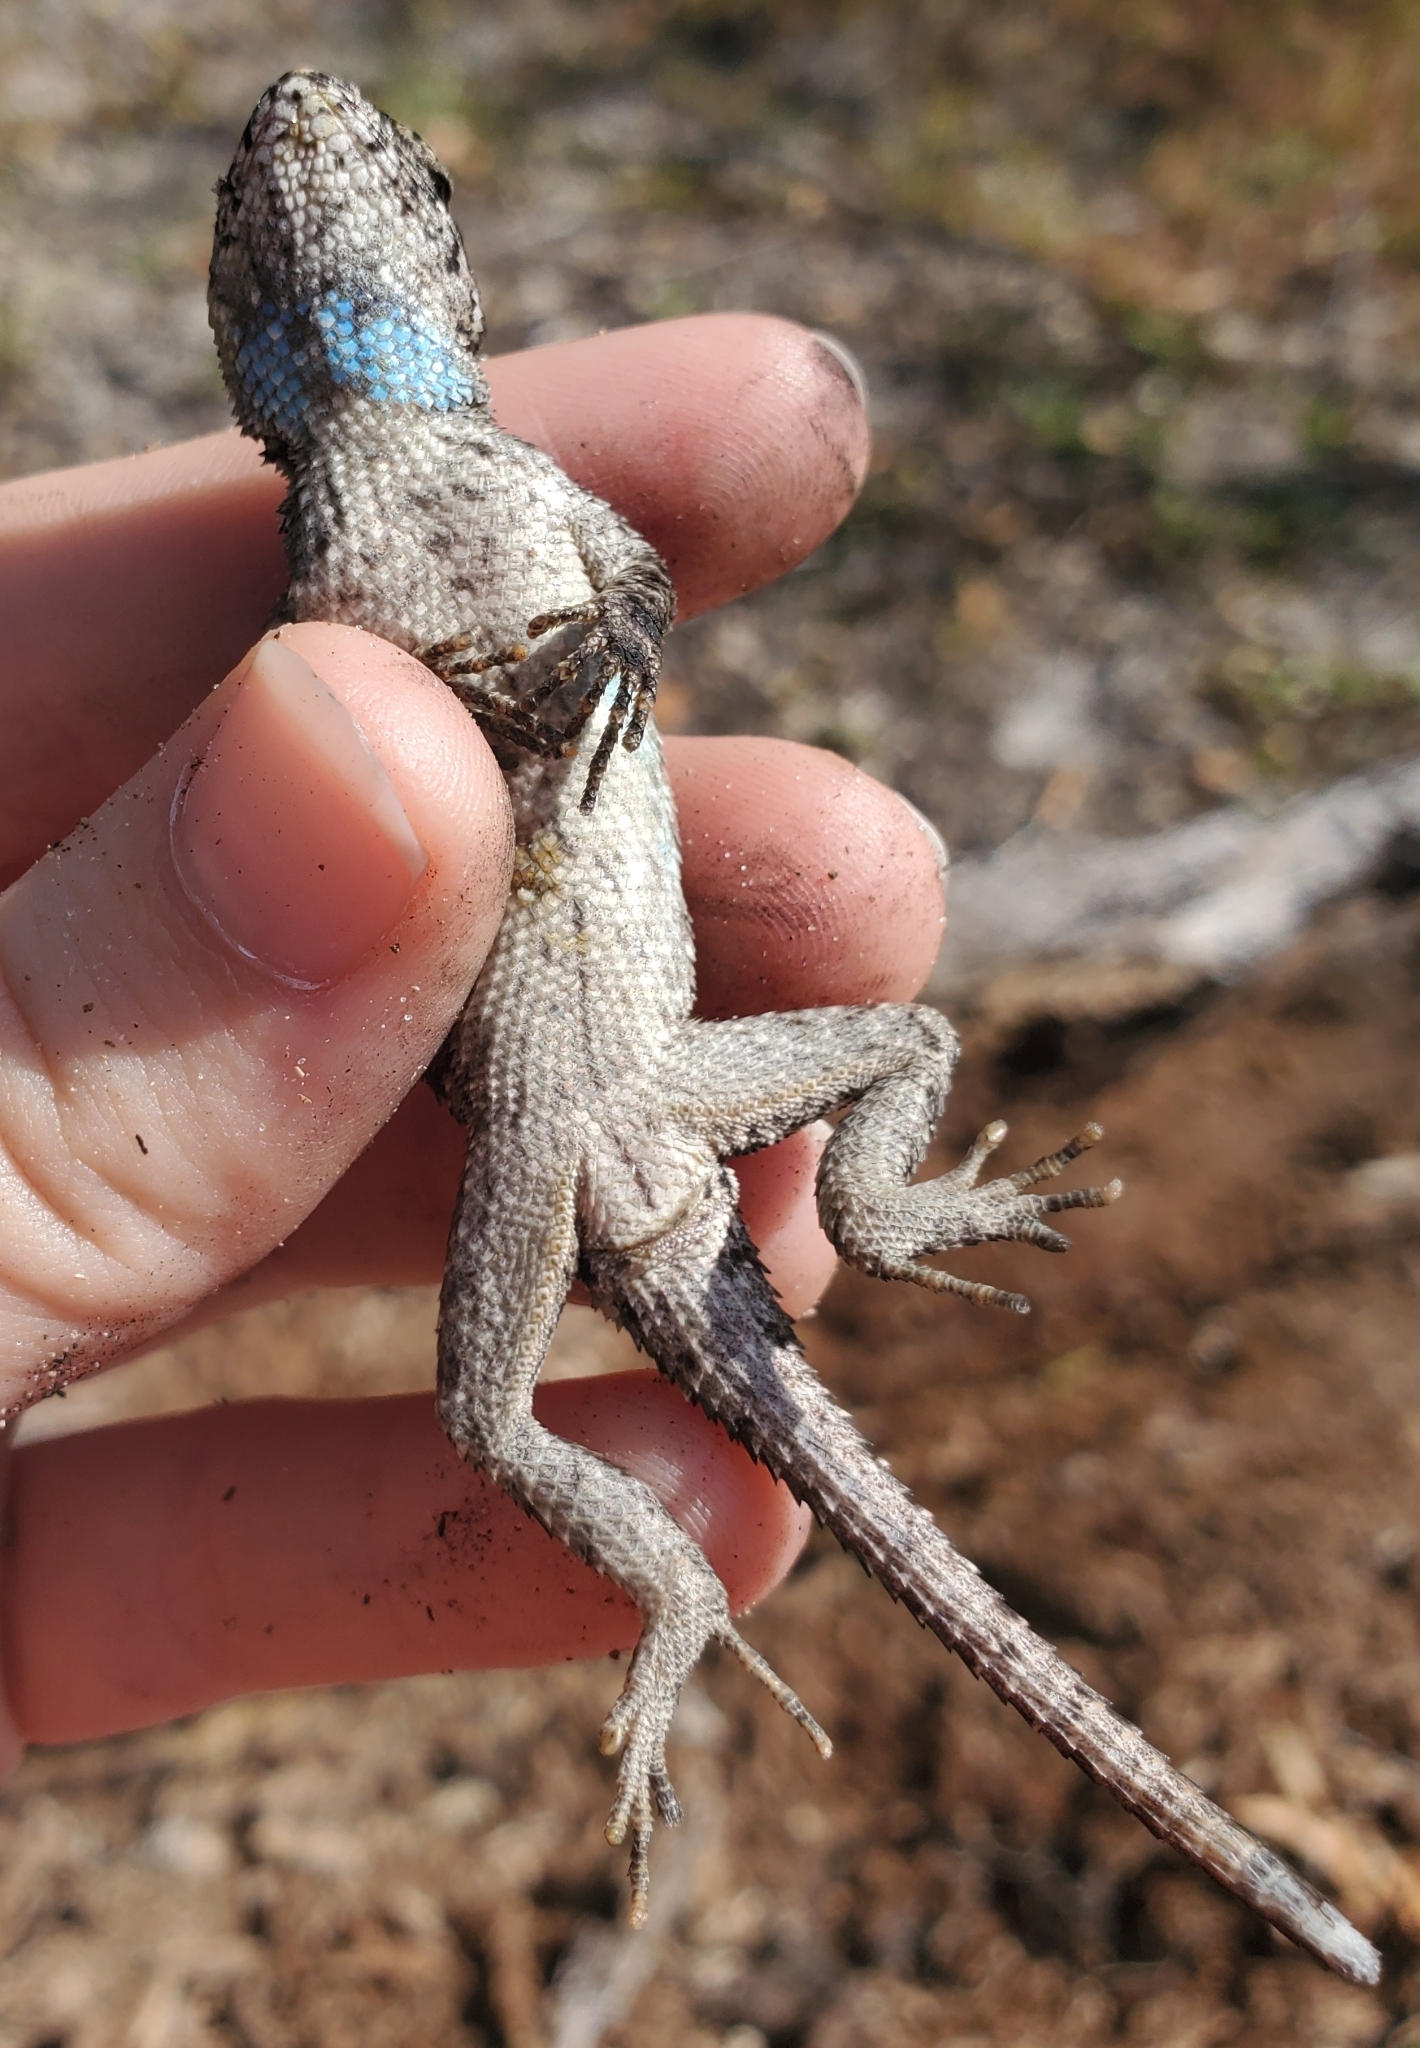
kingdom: Animalia
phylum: Chordata
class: Squamata
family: Phrynosomatidae
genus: Sceloporus
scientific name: Sceloporus undulatus
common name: Eastern fence lizard
